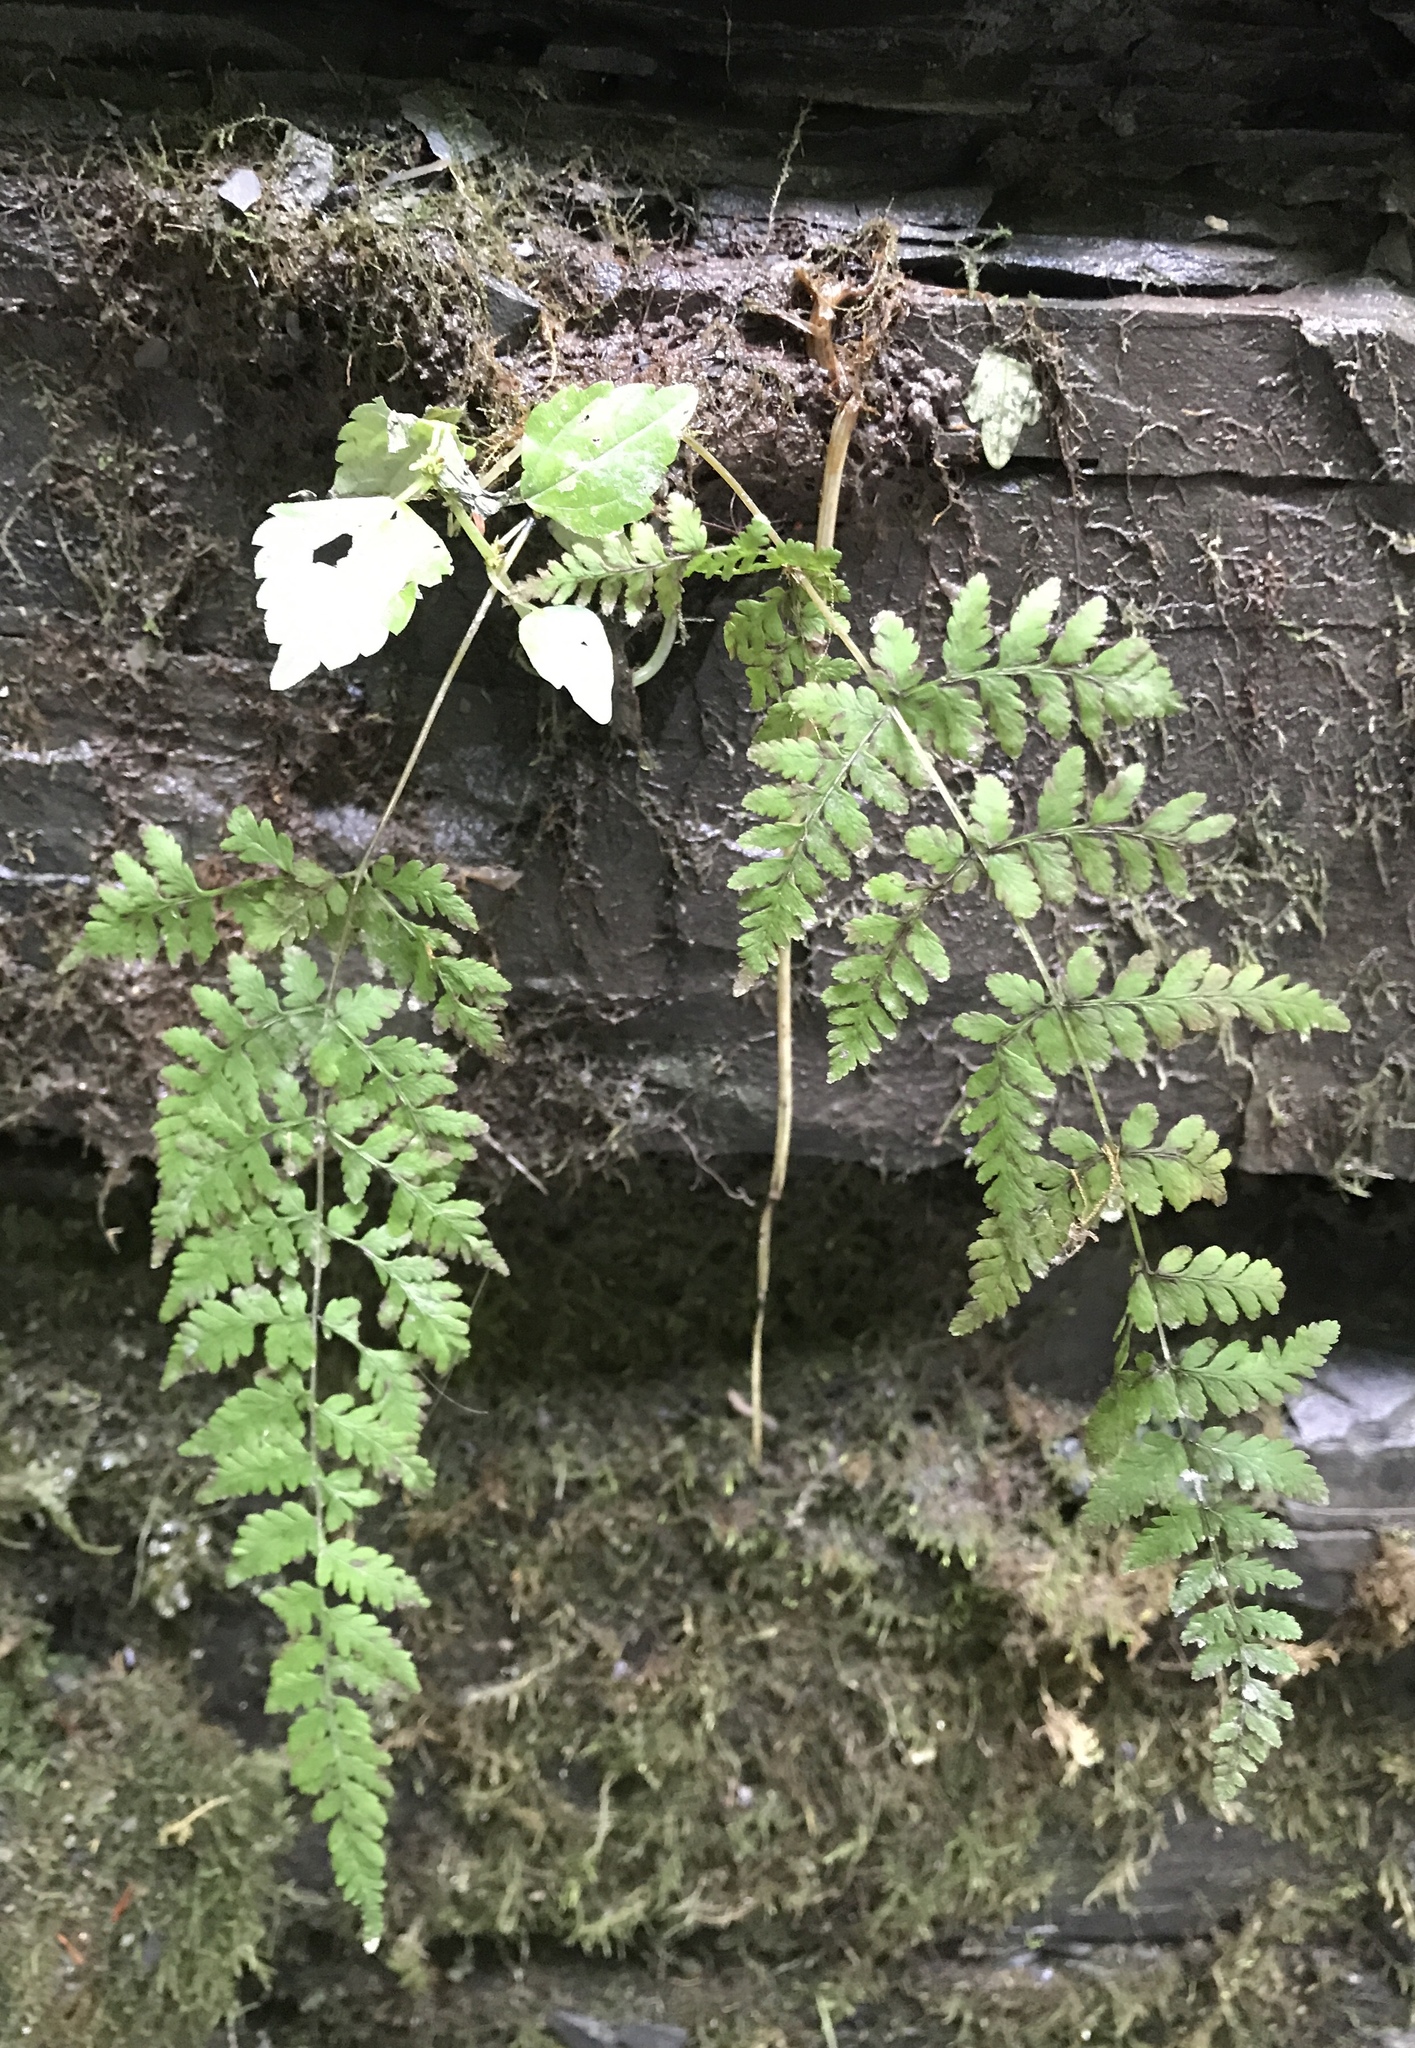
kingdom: Plantae
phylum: Tracheophyta
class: Polypodiopsida
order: Polypodiales
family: Cystopteridaceae
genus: Cystopteris
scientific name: Cystopteris bulbifera
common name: Bulblet bladder fern
